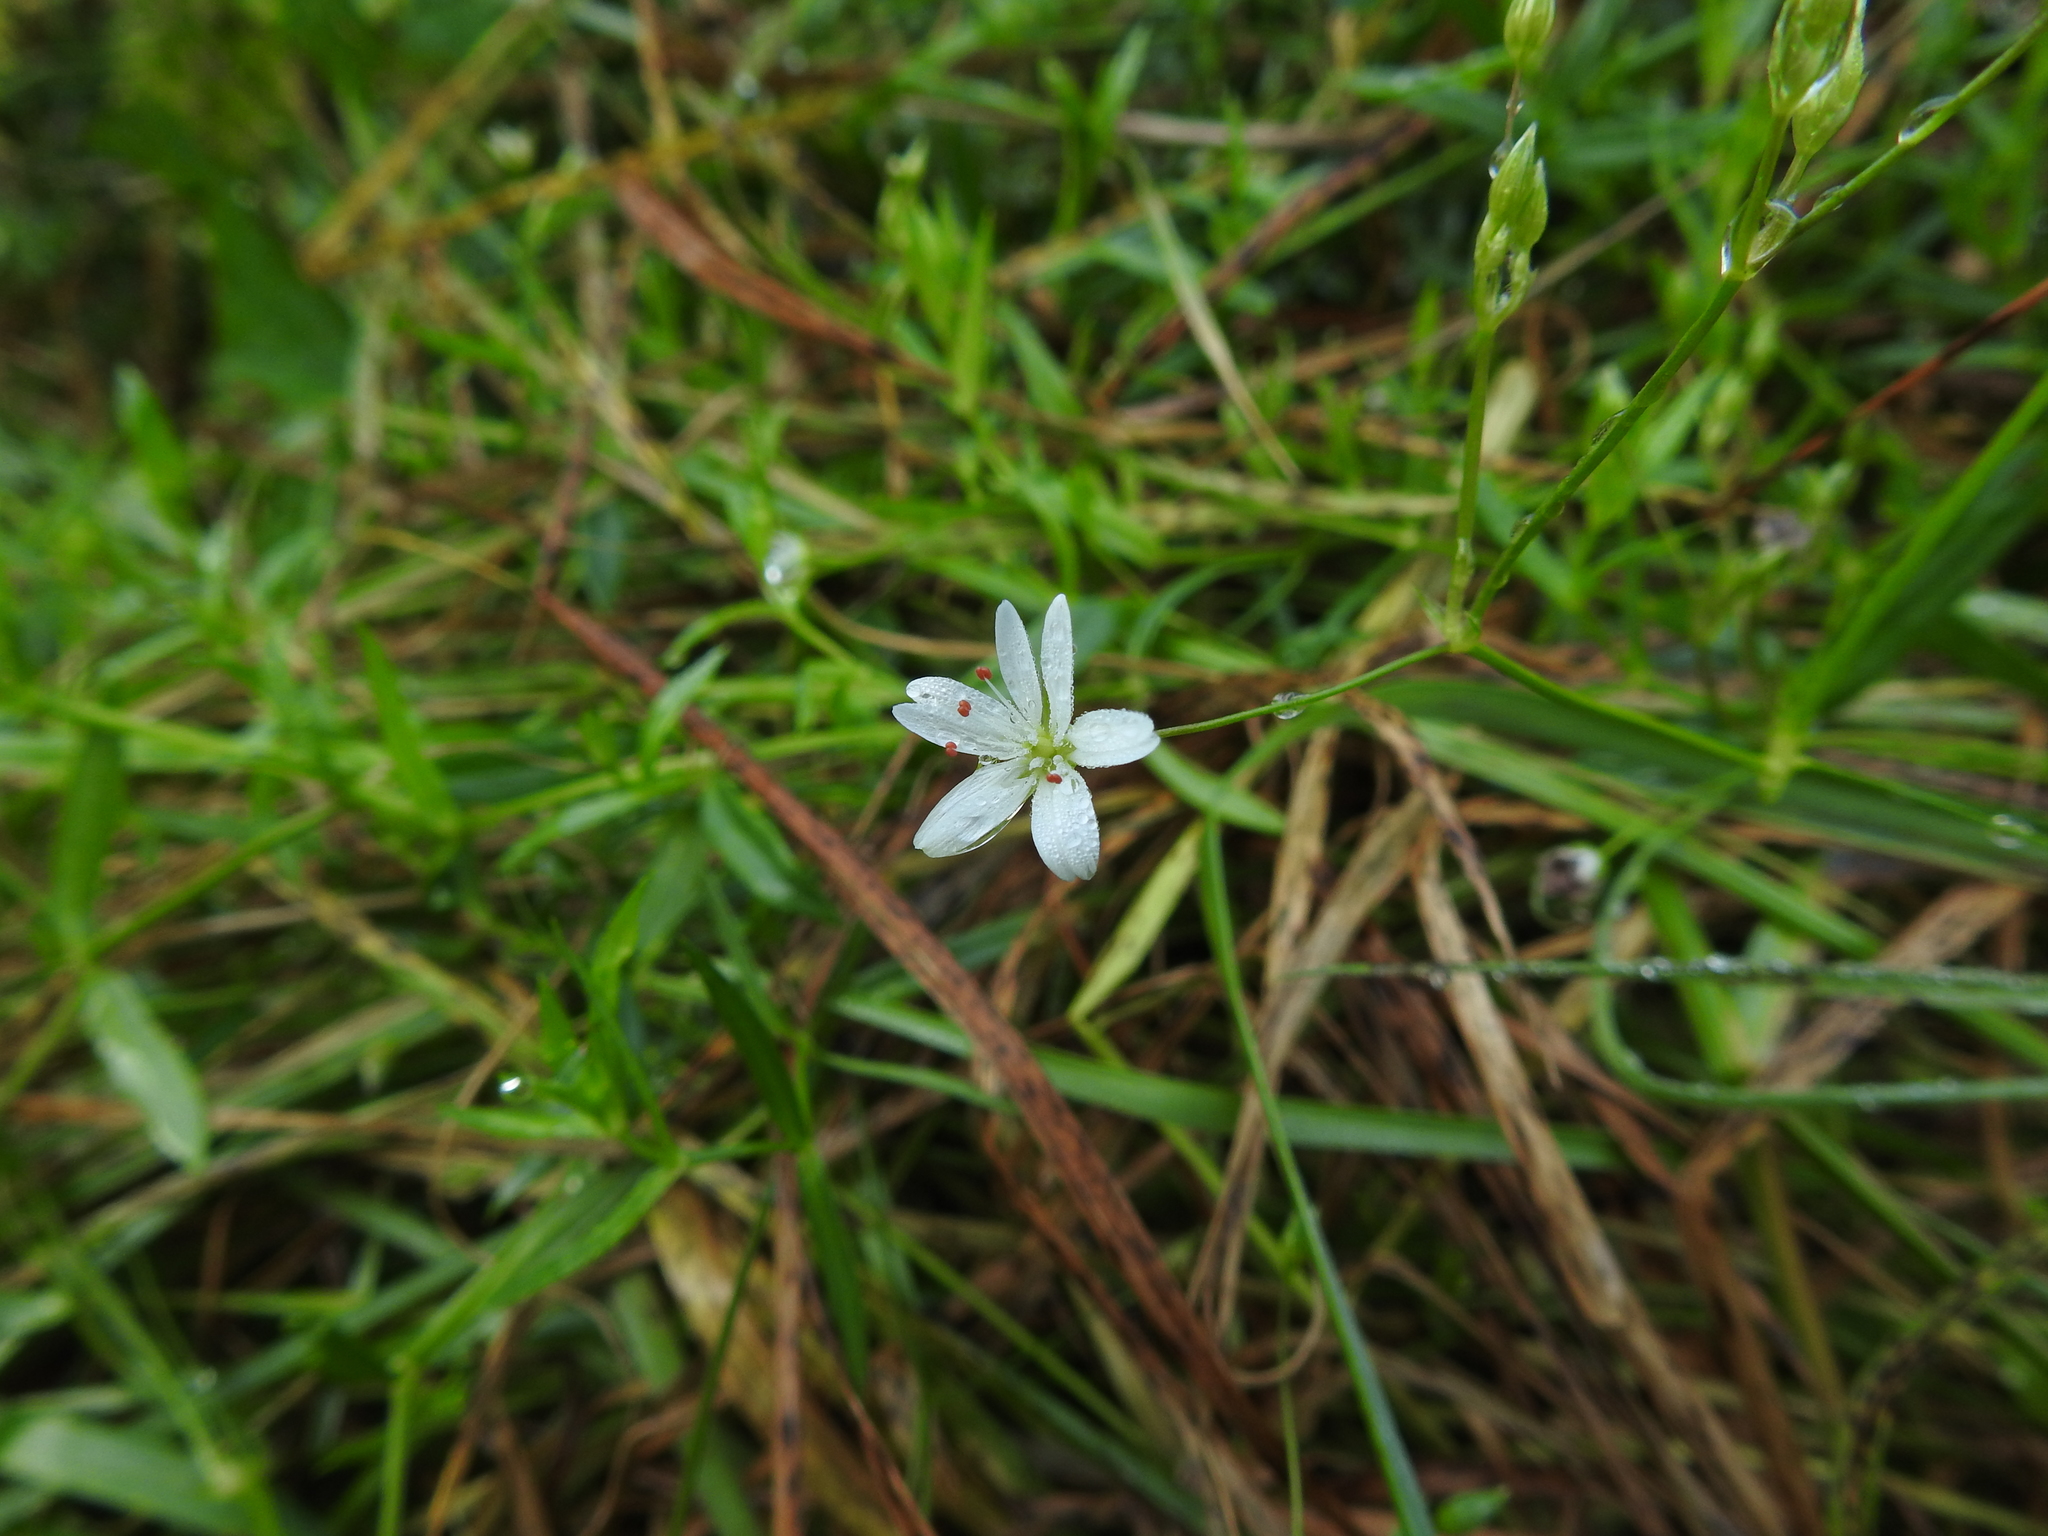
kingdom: Plantae
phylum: Tracheophyta
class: Magnoliopsida
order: Caryophyllales
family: Caryophyllaceae
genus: Stellaria
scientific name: Stellaria graminea
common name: Grass-like starwort
